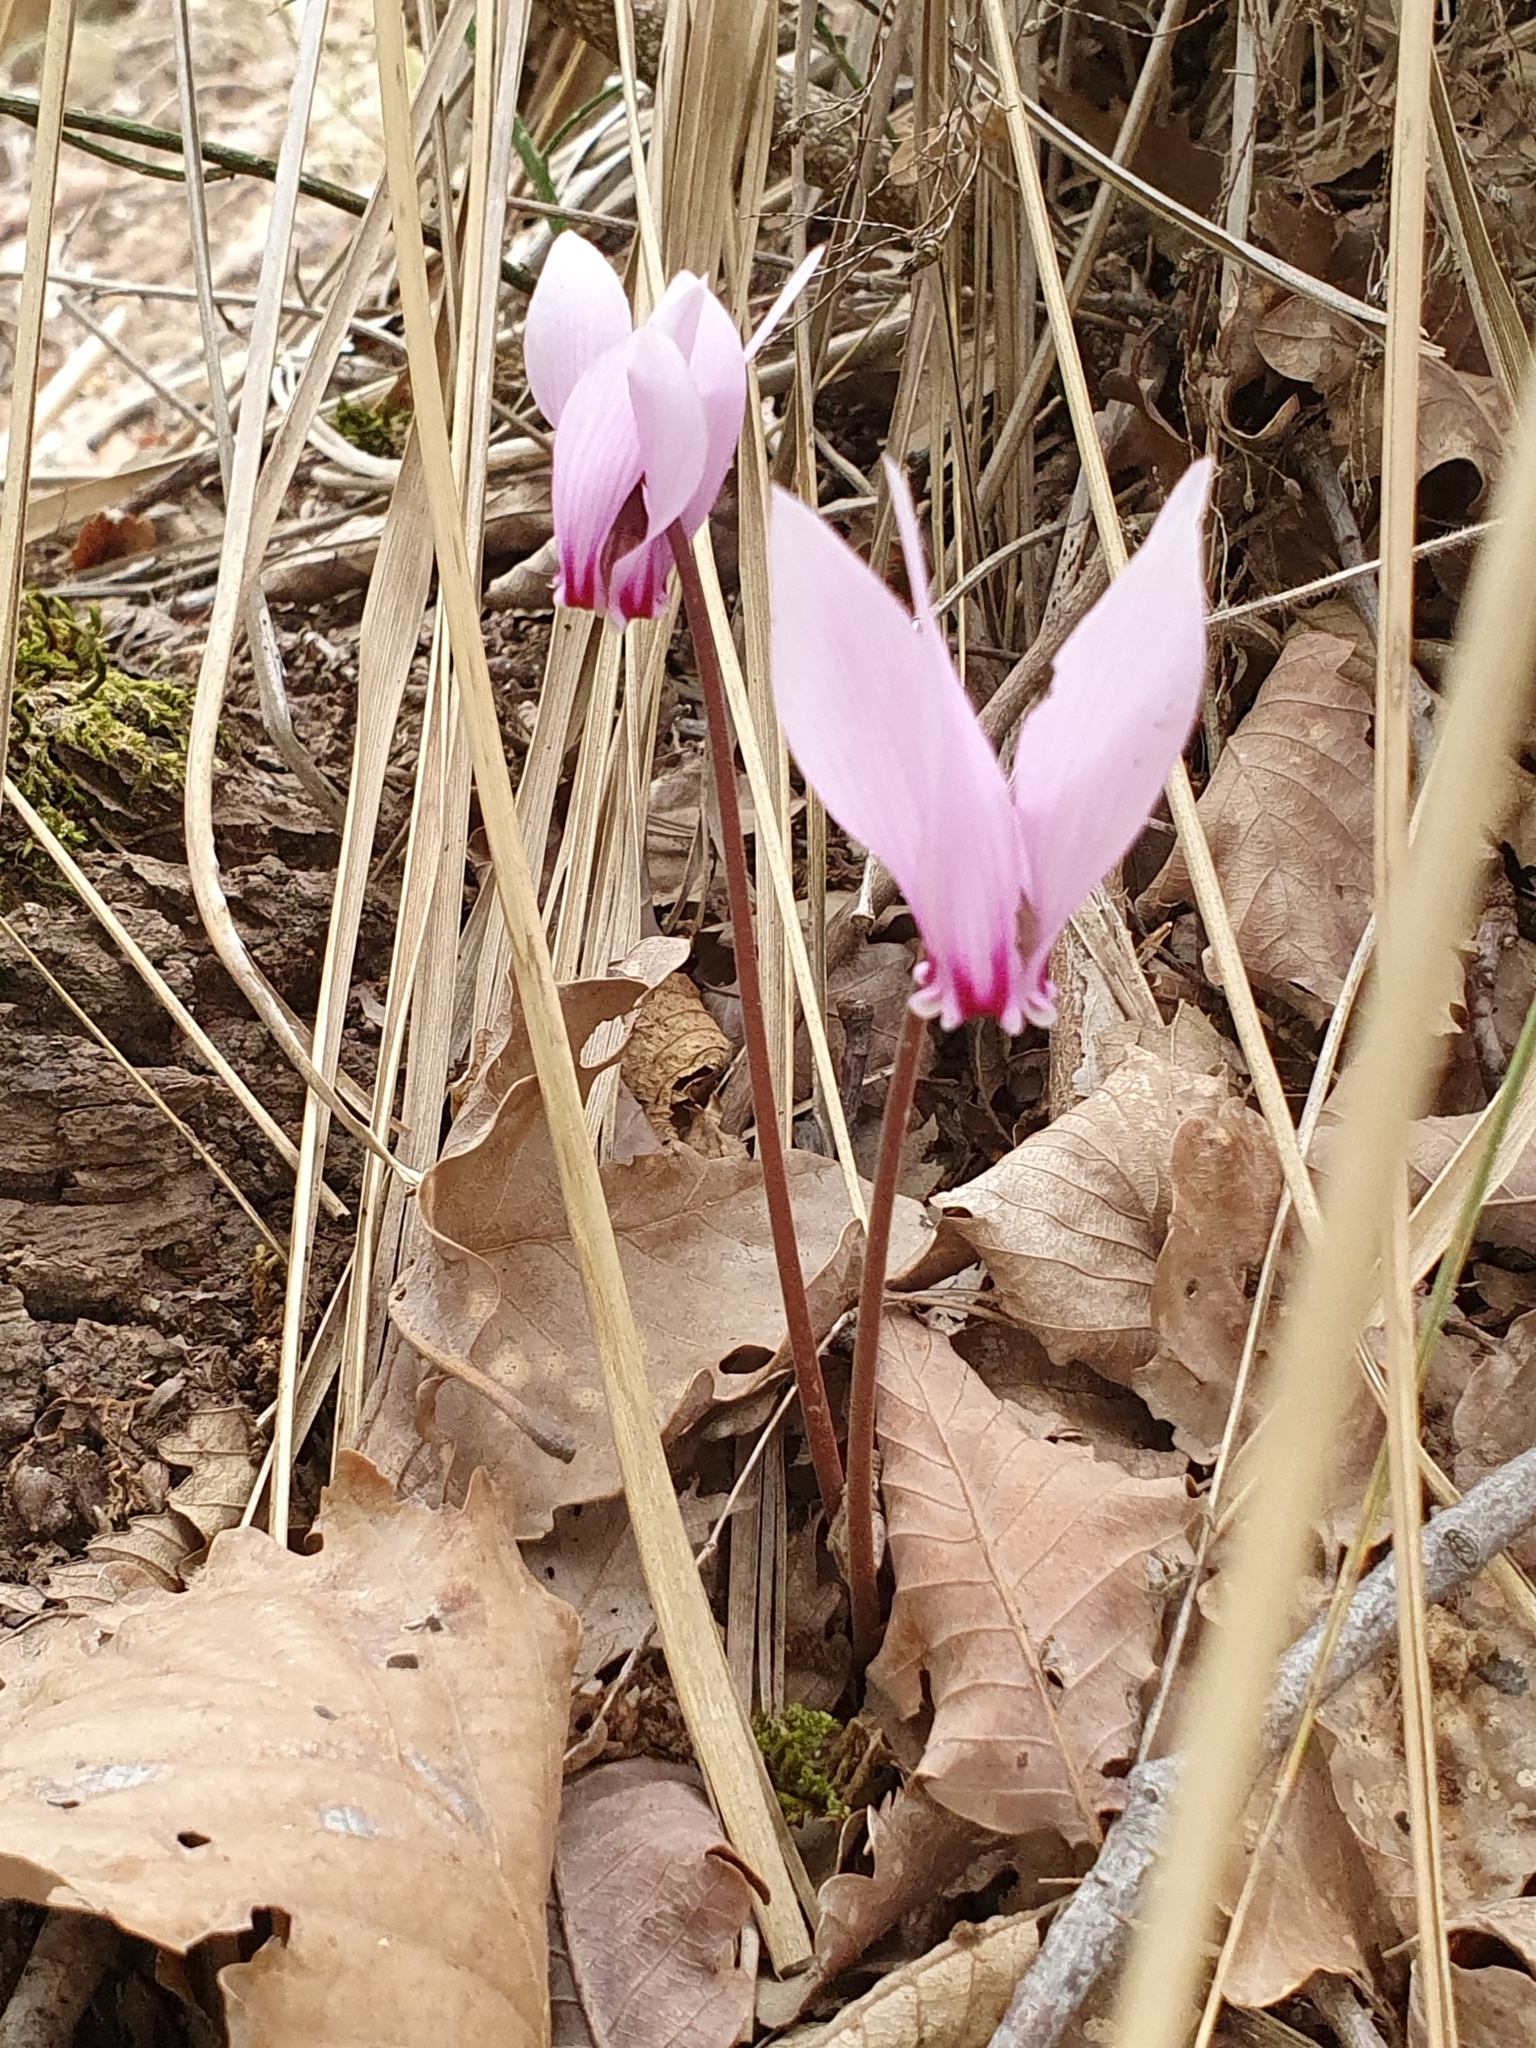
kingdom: Plantae
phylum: Tracheophyta
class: Magnoliopsida
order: Ericales
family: Primulaceae
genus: Cyclamen
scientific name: Cyclamen africanum
